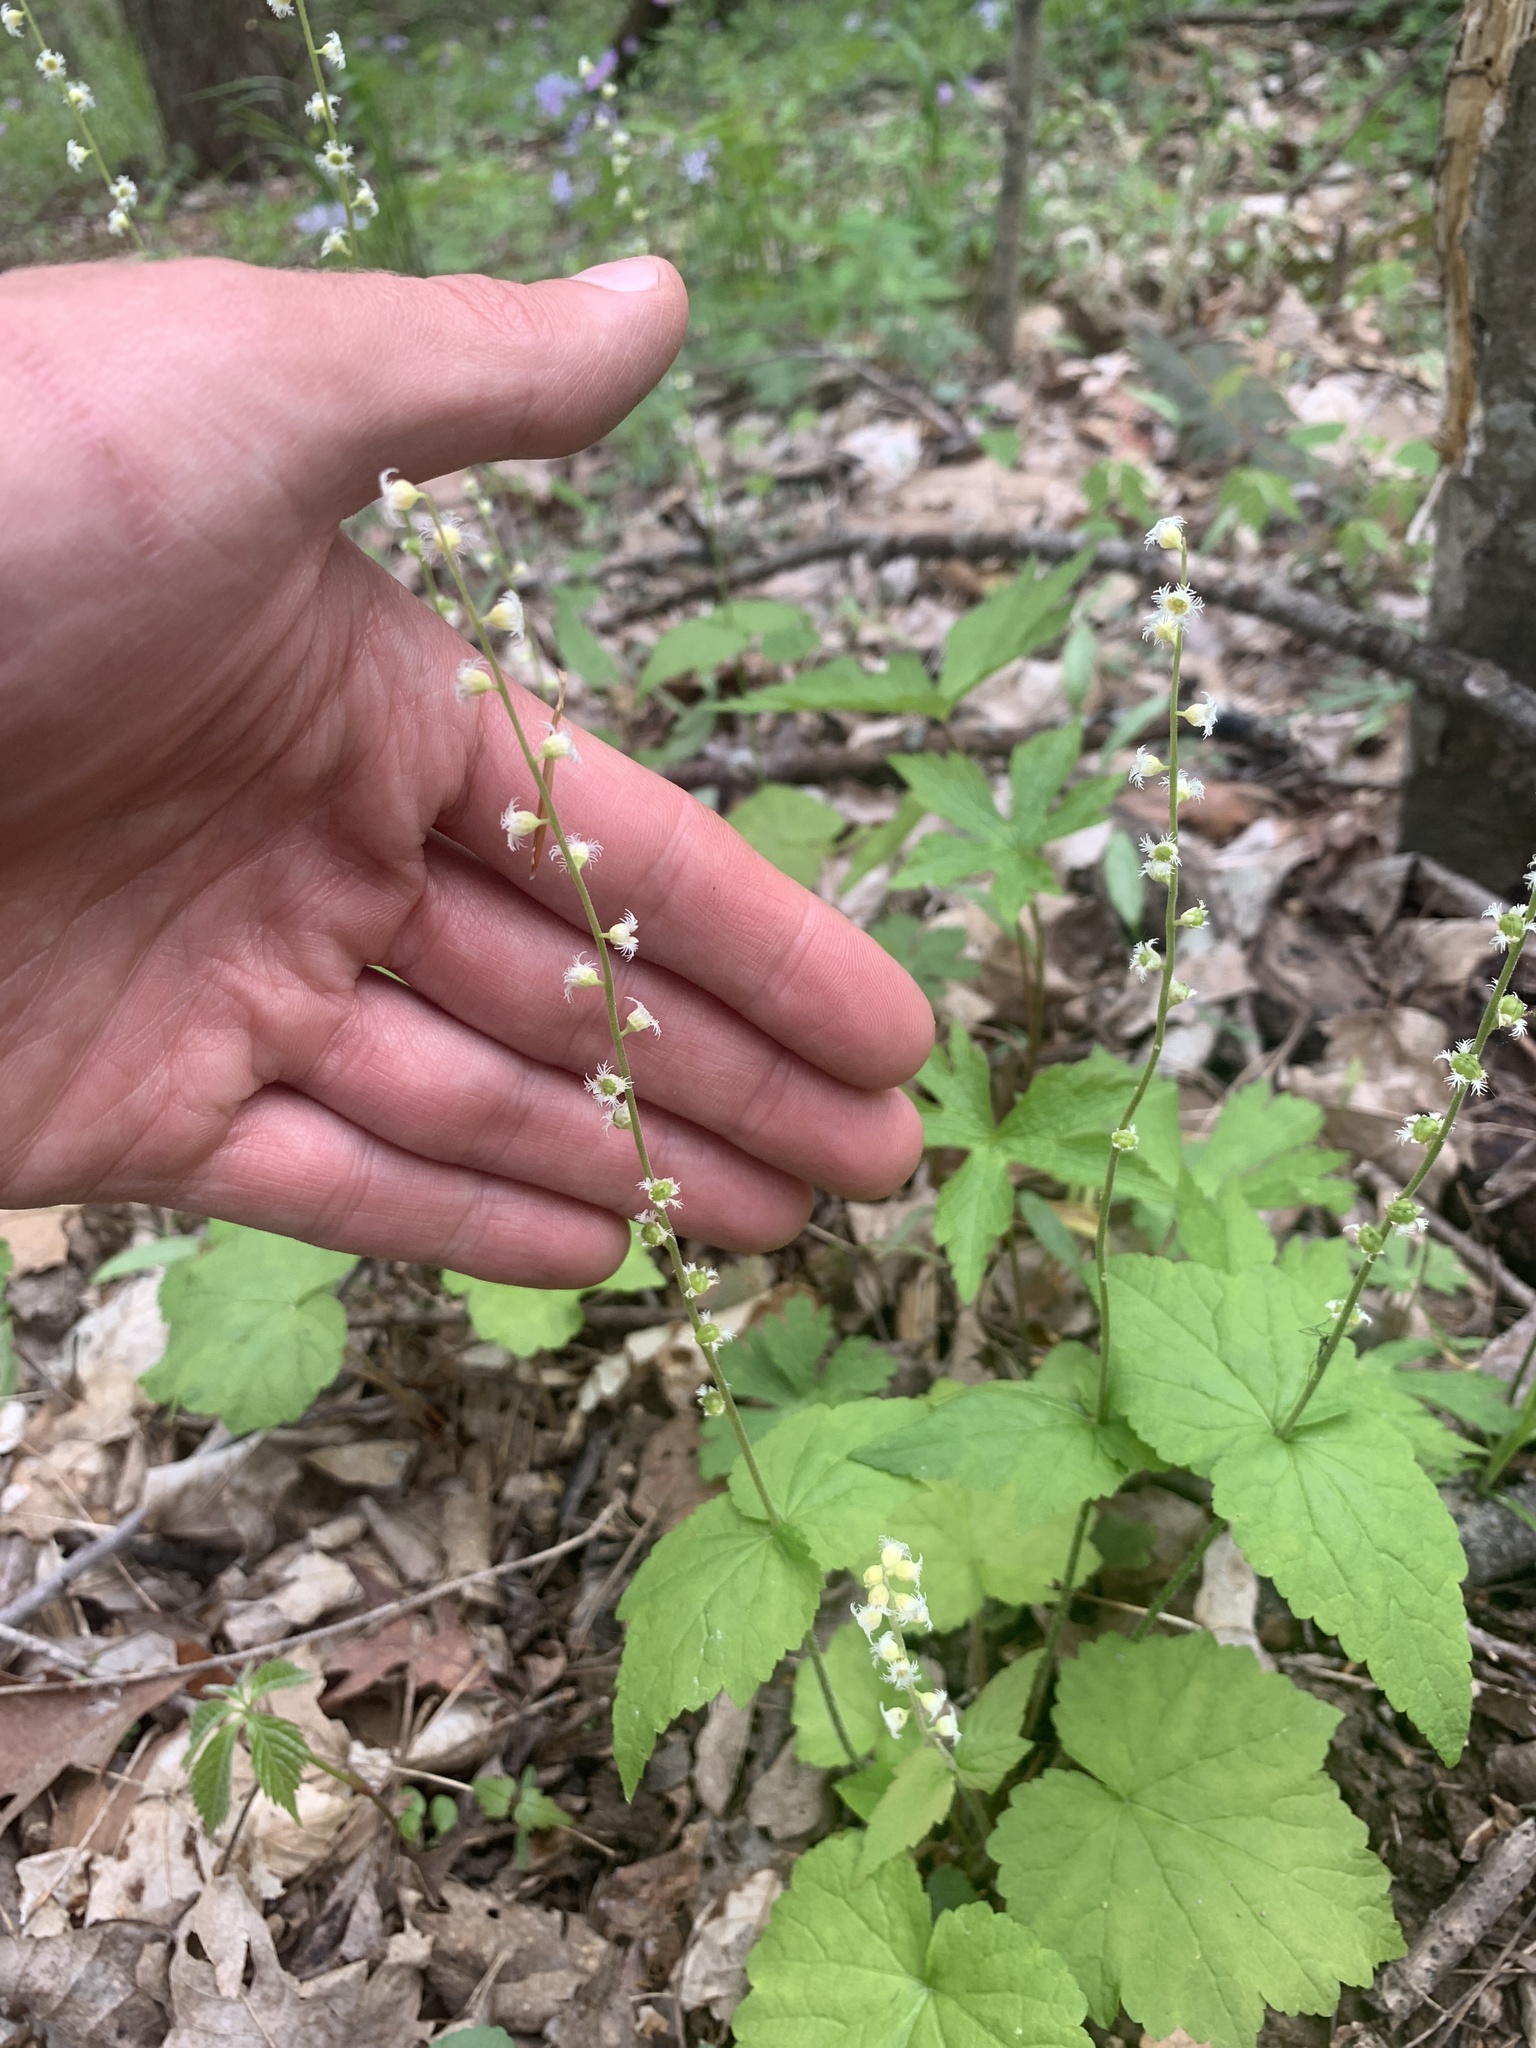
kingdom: Plantae
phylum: Tracheophyta
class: Magnoliopsida
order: Saxifragales
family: Saxifragaceae
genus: Mitella
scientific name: Mitella diphylla
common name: Coolwort
